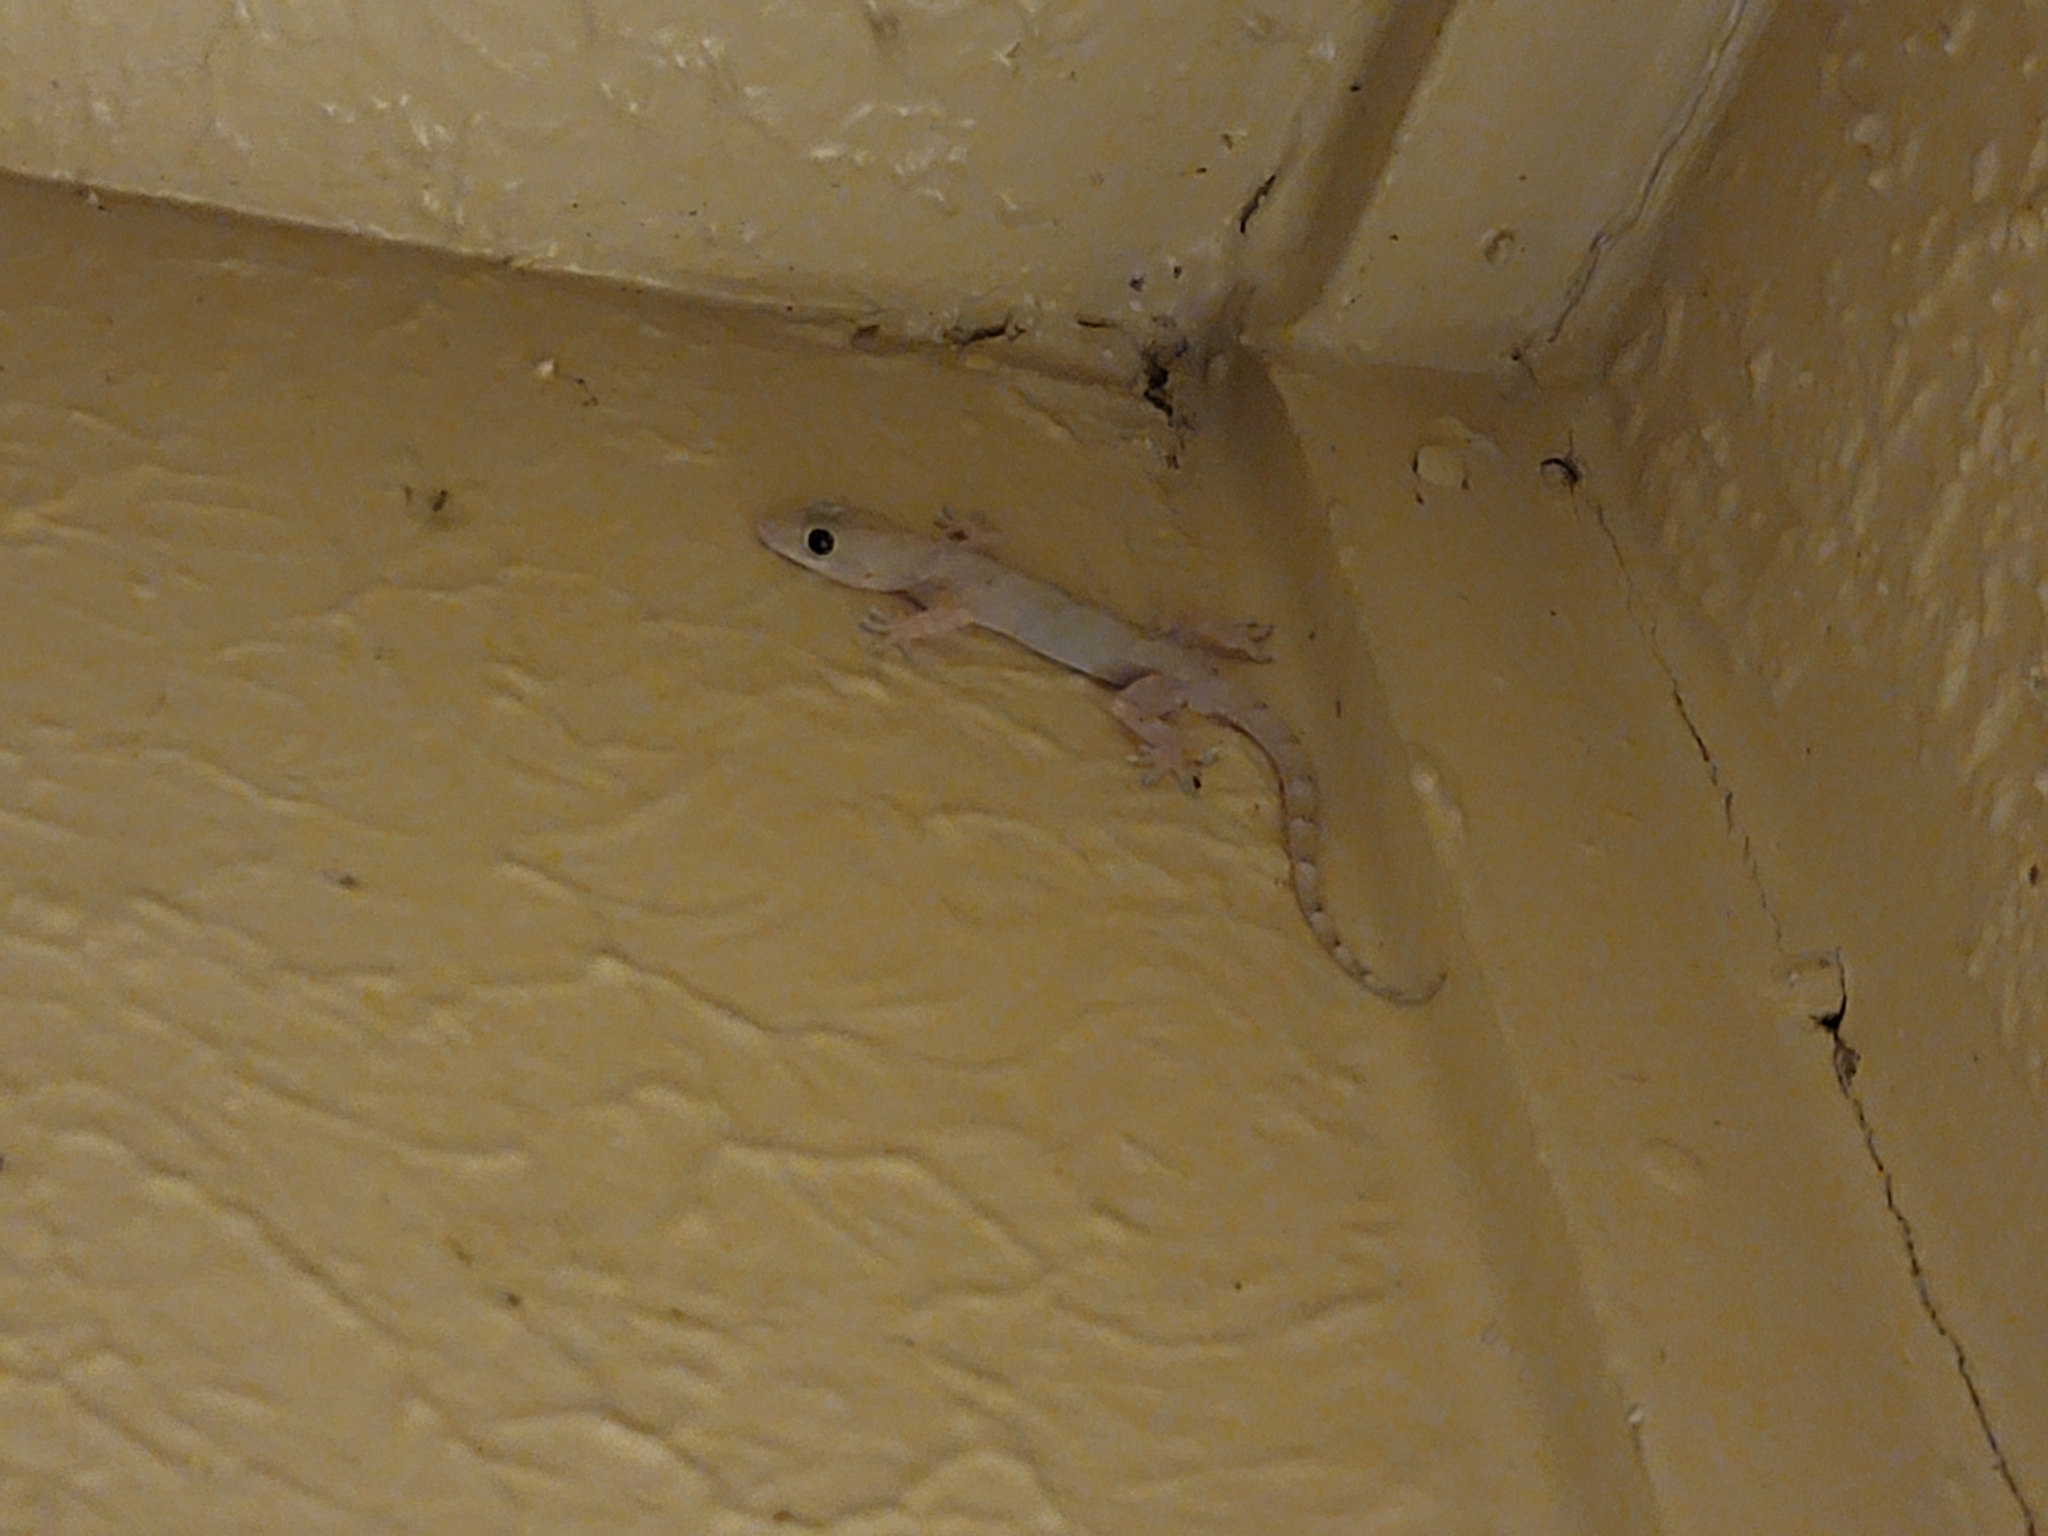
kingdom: Animalia
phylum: Chordata
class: Squamata
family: Gekkonidae
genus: Hemidactylus
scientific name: Hemidactylus mabouia
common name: House gecko
